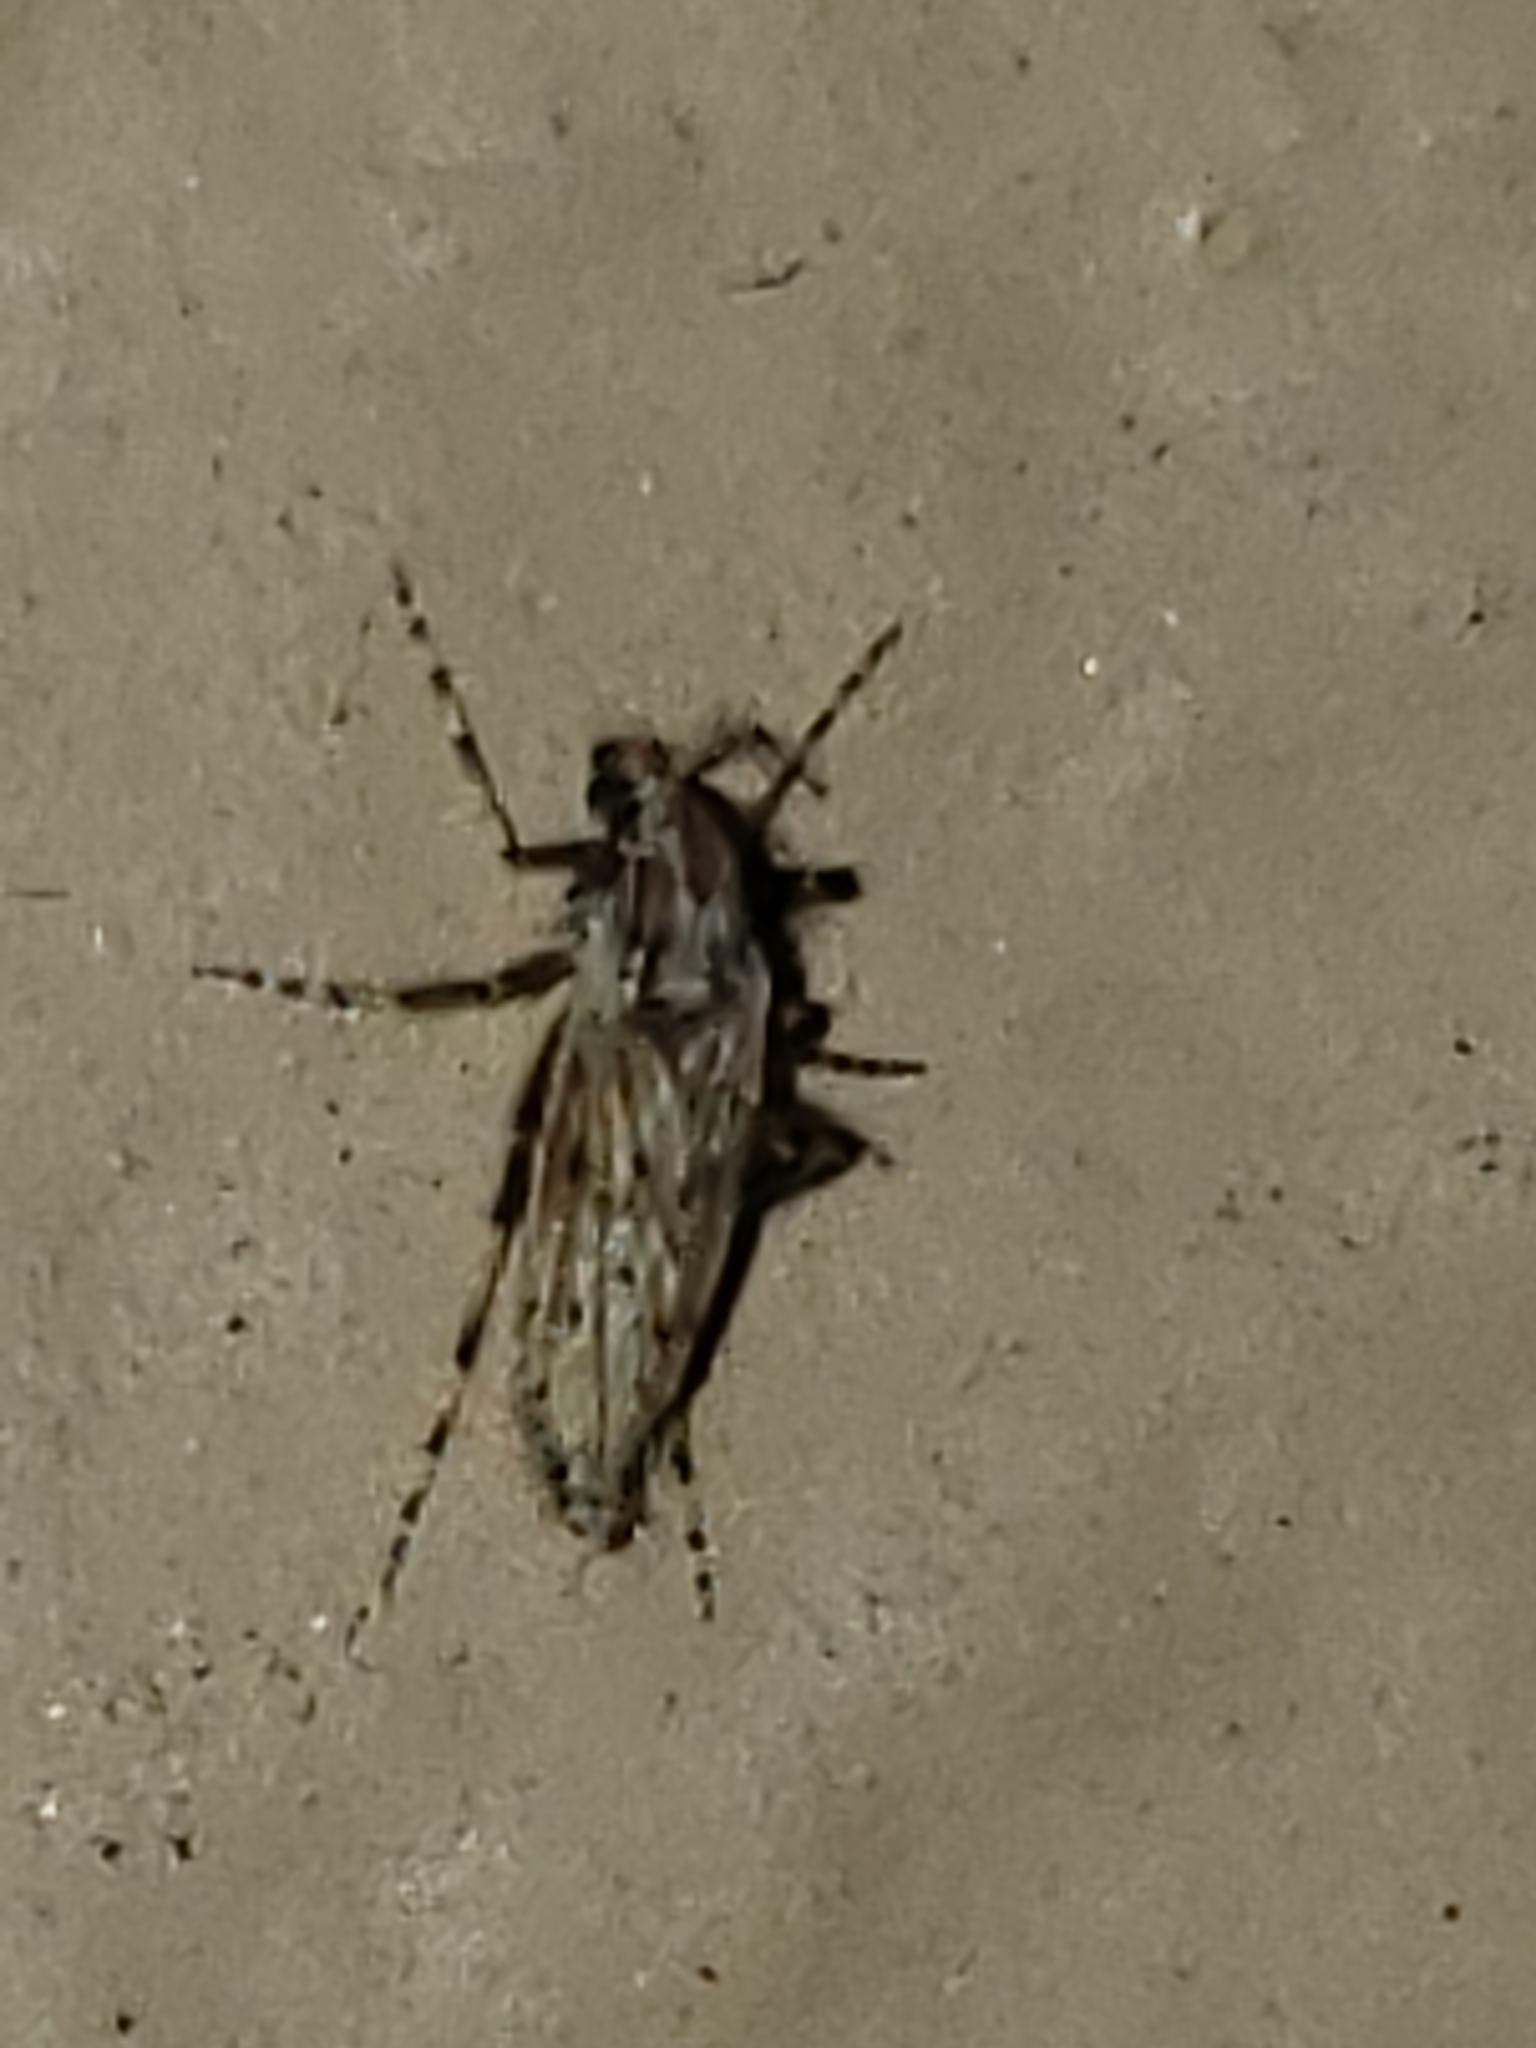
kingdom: Animalia
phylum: Arthropoda
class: Insecta
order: Diptera
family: Chaoboridae
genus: Chaoborus
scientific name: Chaoborus punctipennis
